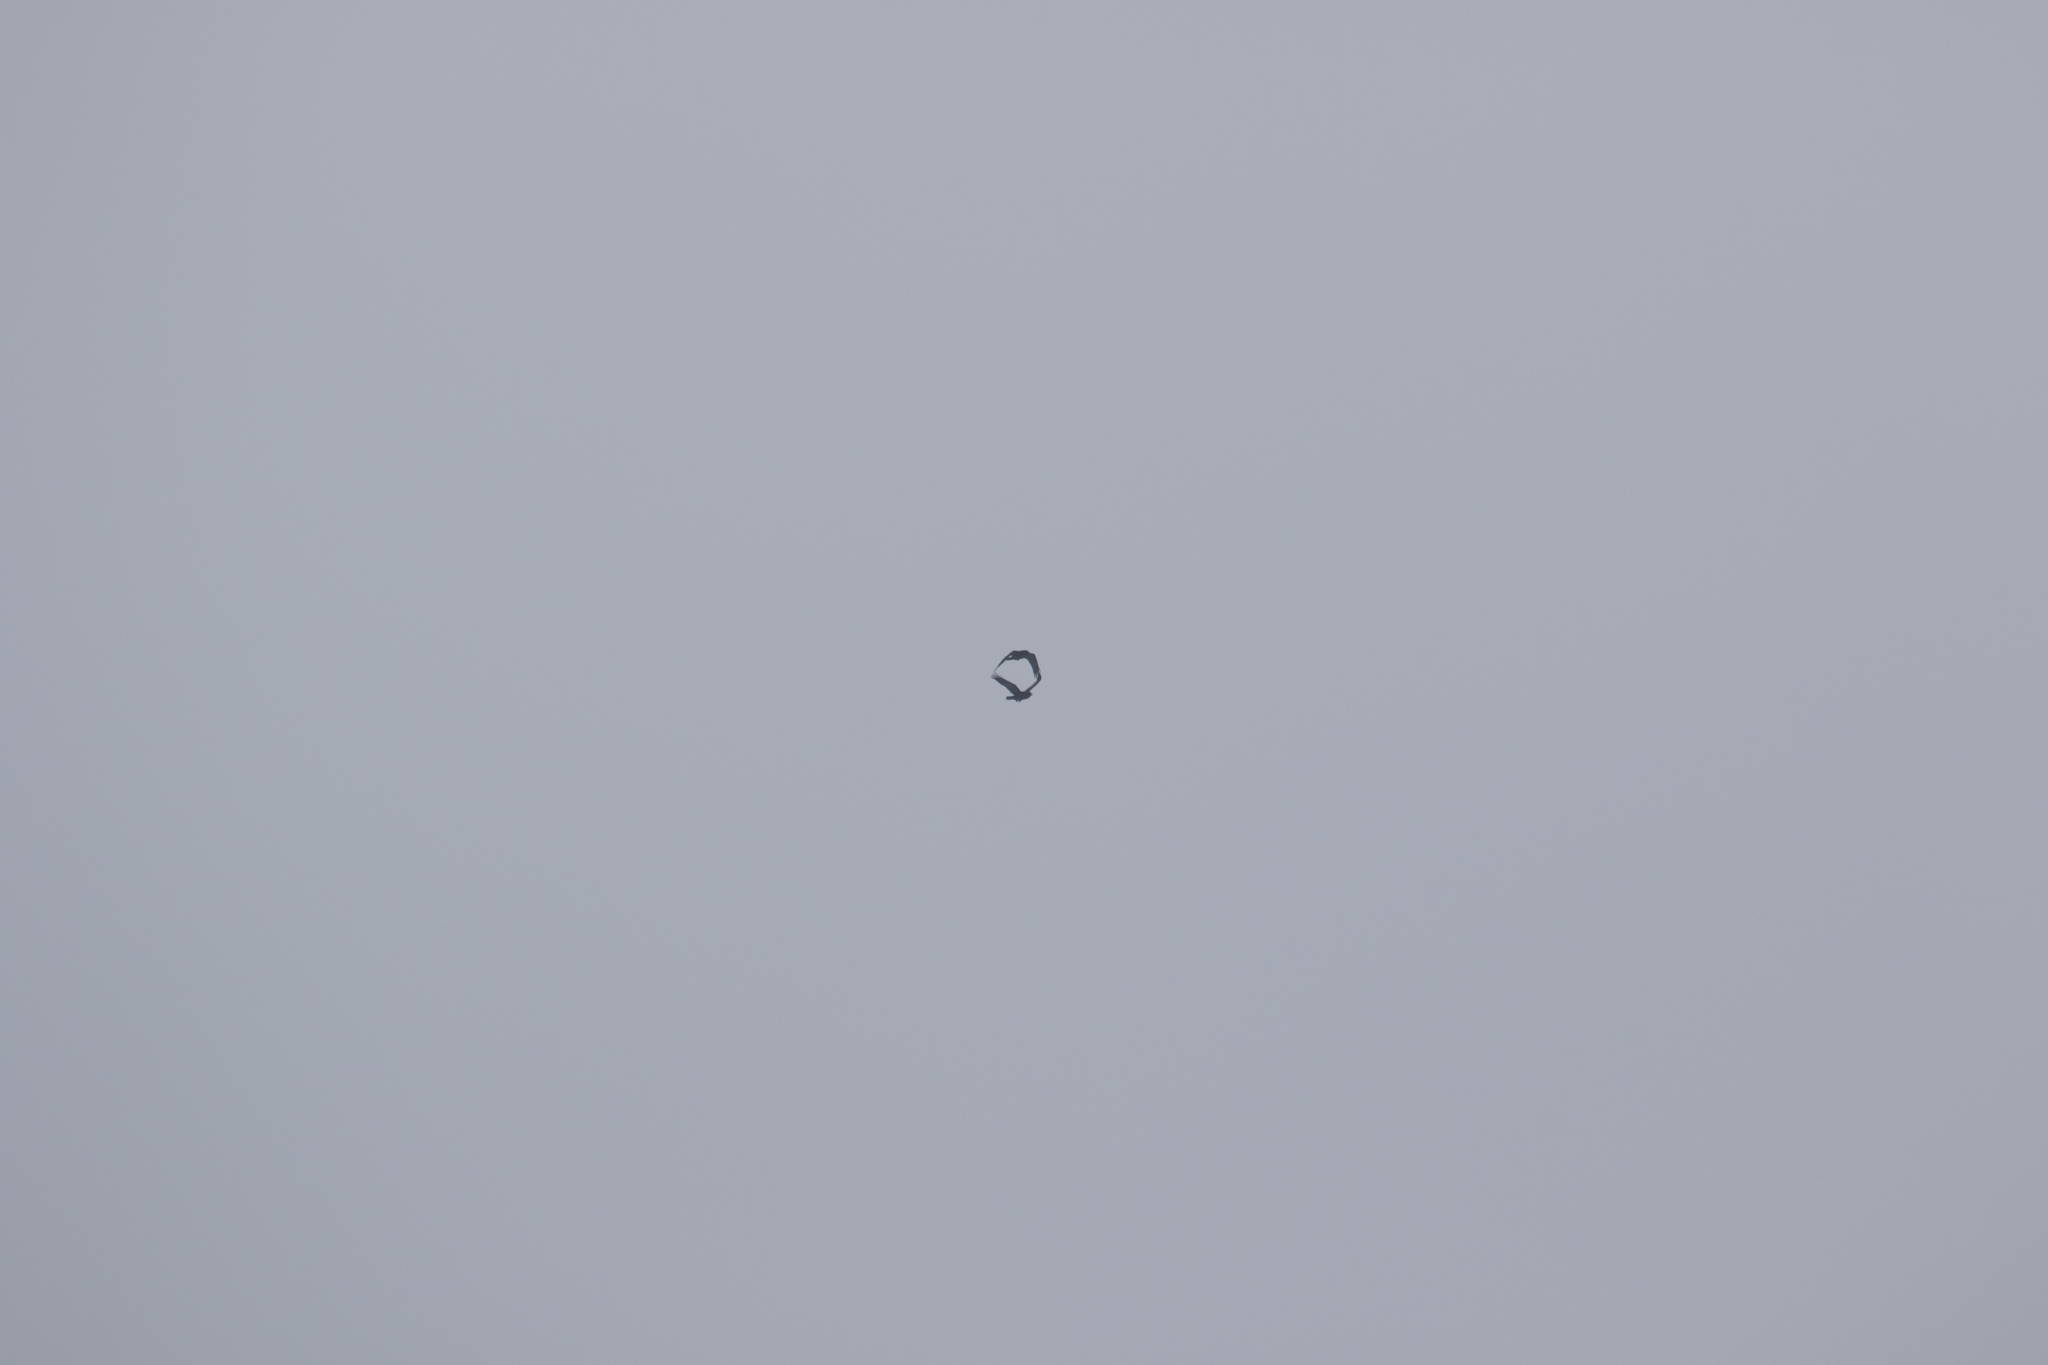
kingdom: Animalia
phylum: Chordata
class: Aves
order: Passeriformes
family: Corvidae
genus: Corvus
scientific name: Corvus corax
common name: Common raven
